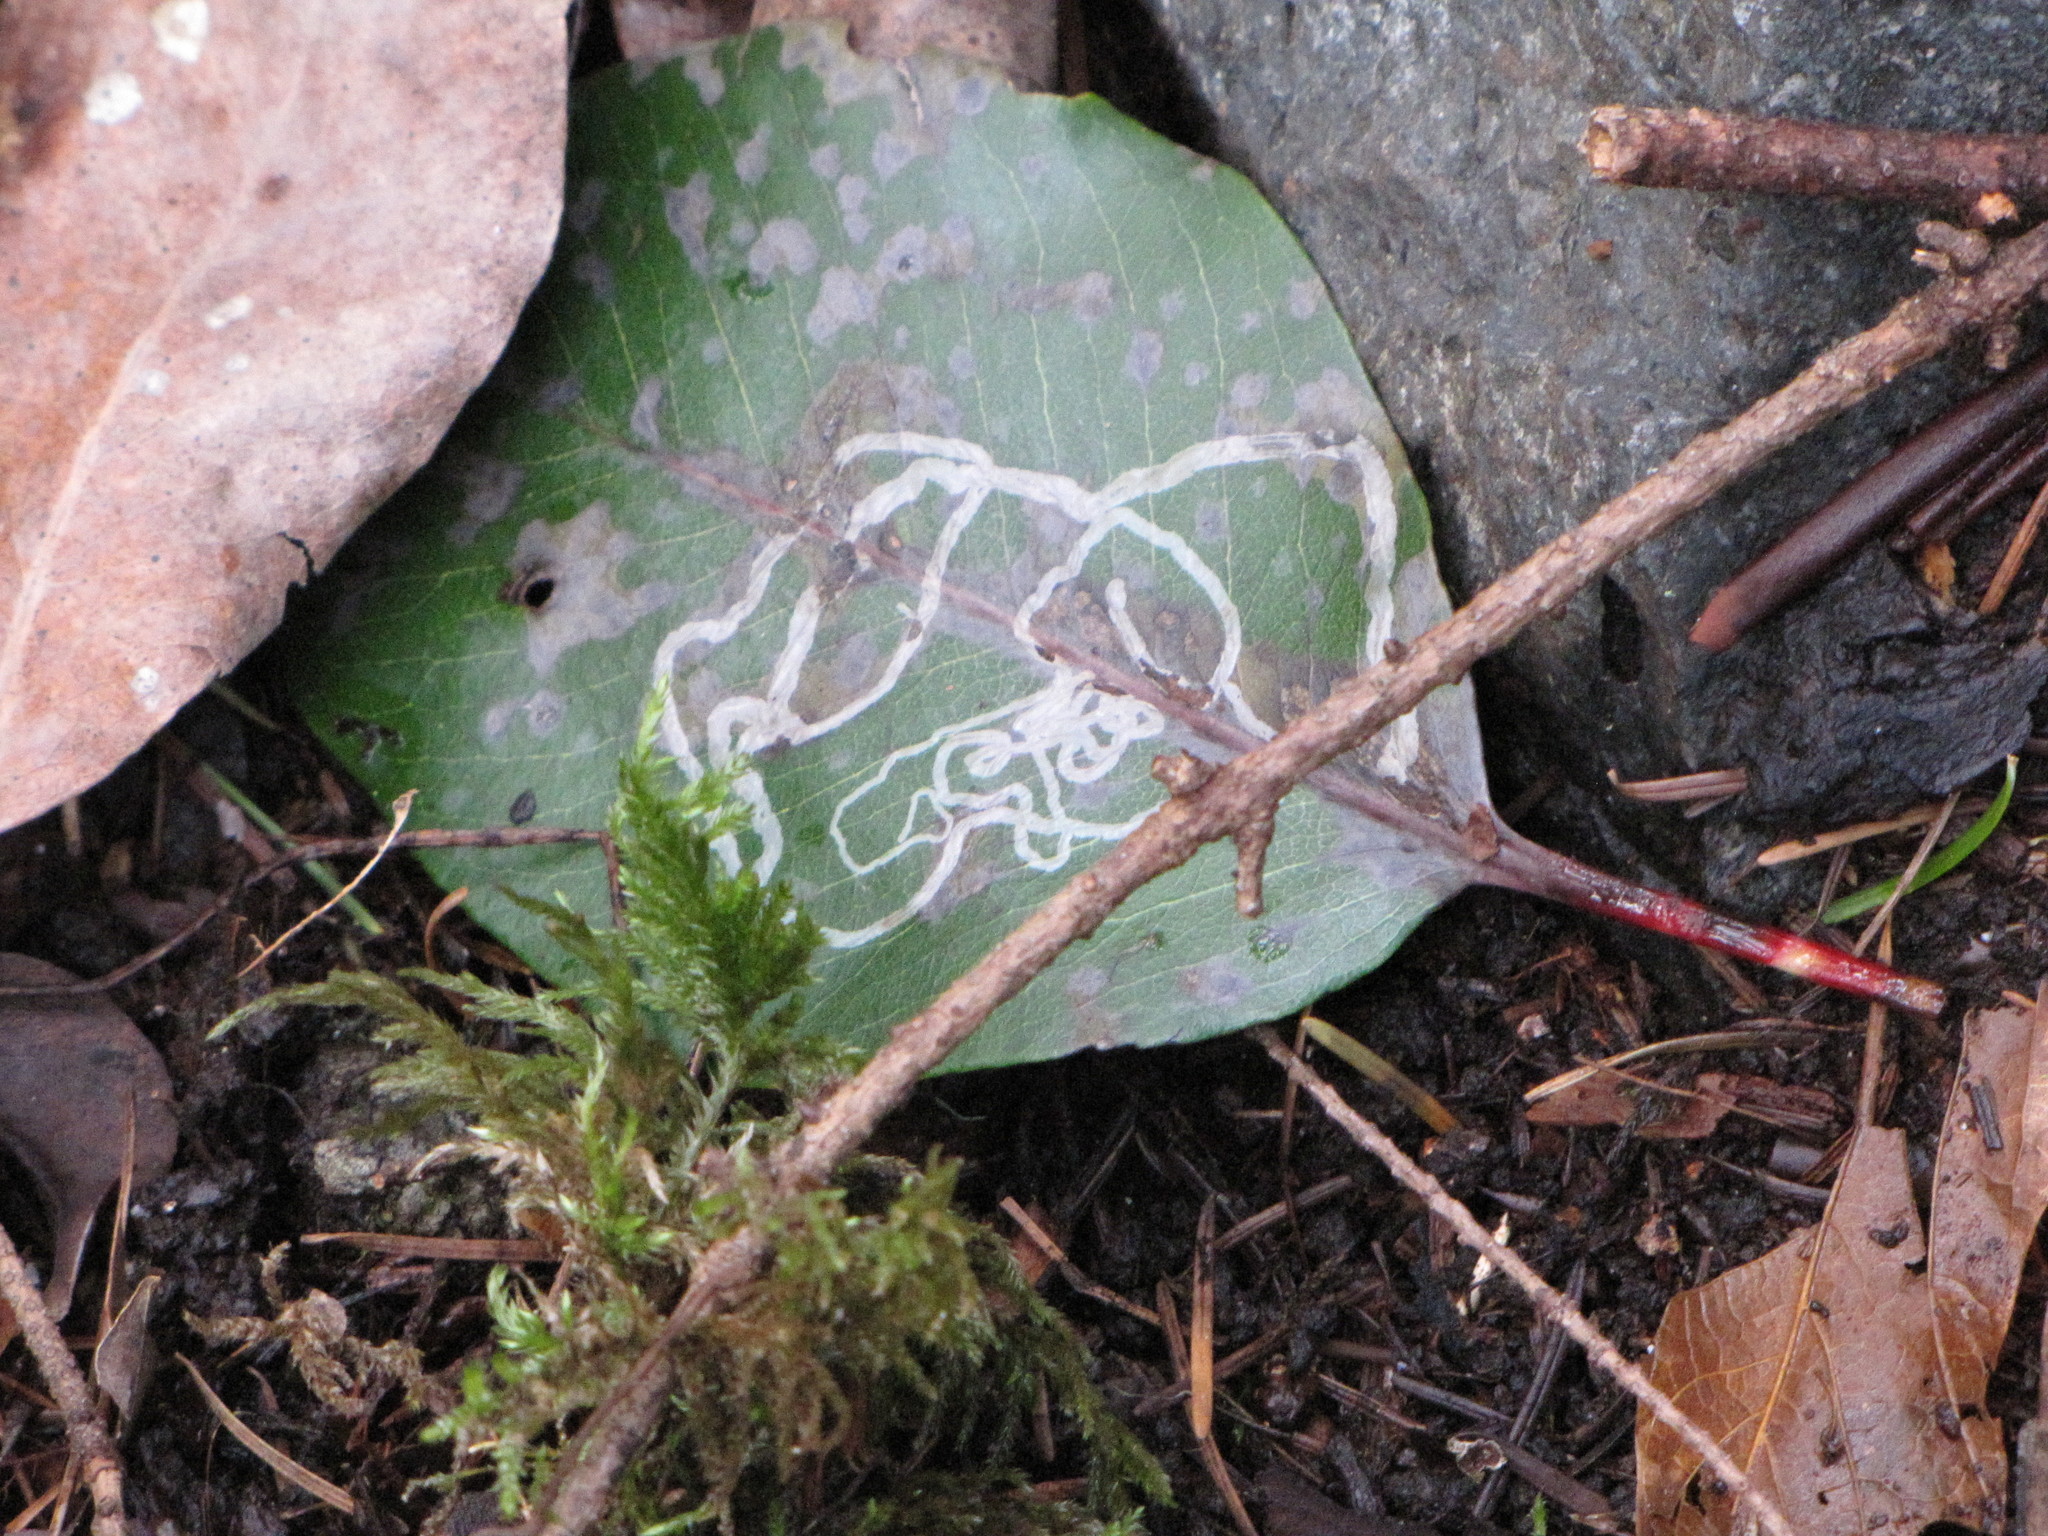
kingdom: Animalia
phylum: Arthropoda
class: Insecta
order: Lepidoptera
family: Gracillariidae
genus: Marmara
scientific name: Marmara arbutiella
